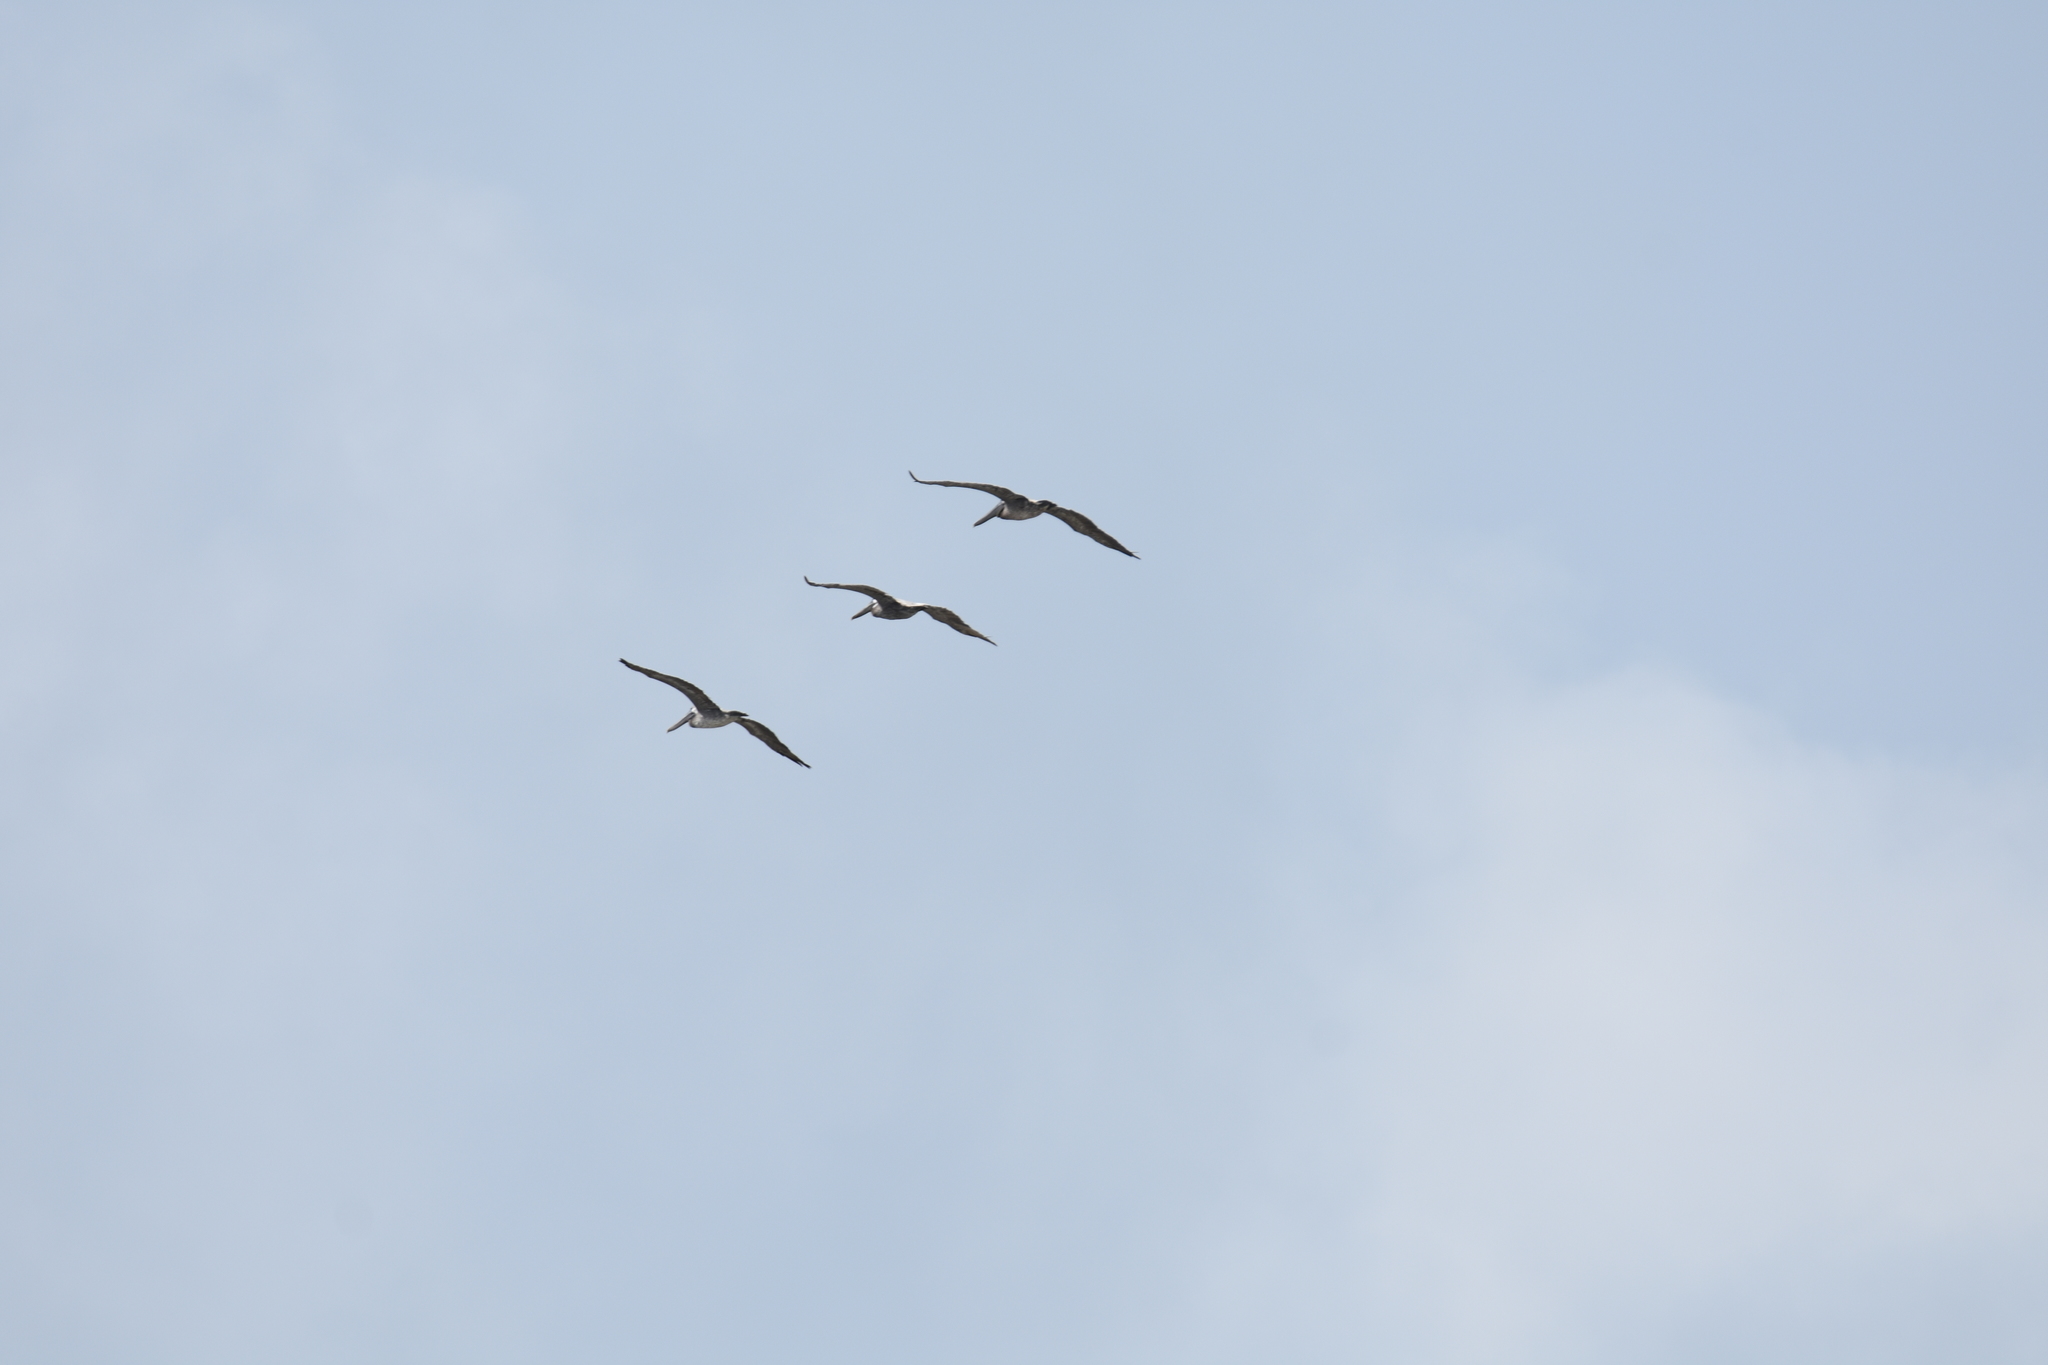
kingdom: Animalia
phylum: Chordata
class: Aves
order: Pelecaniformes
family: Pelecanidae
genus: Pelecanus
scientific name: Pelecanus occidentalis
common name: Brown pelican
